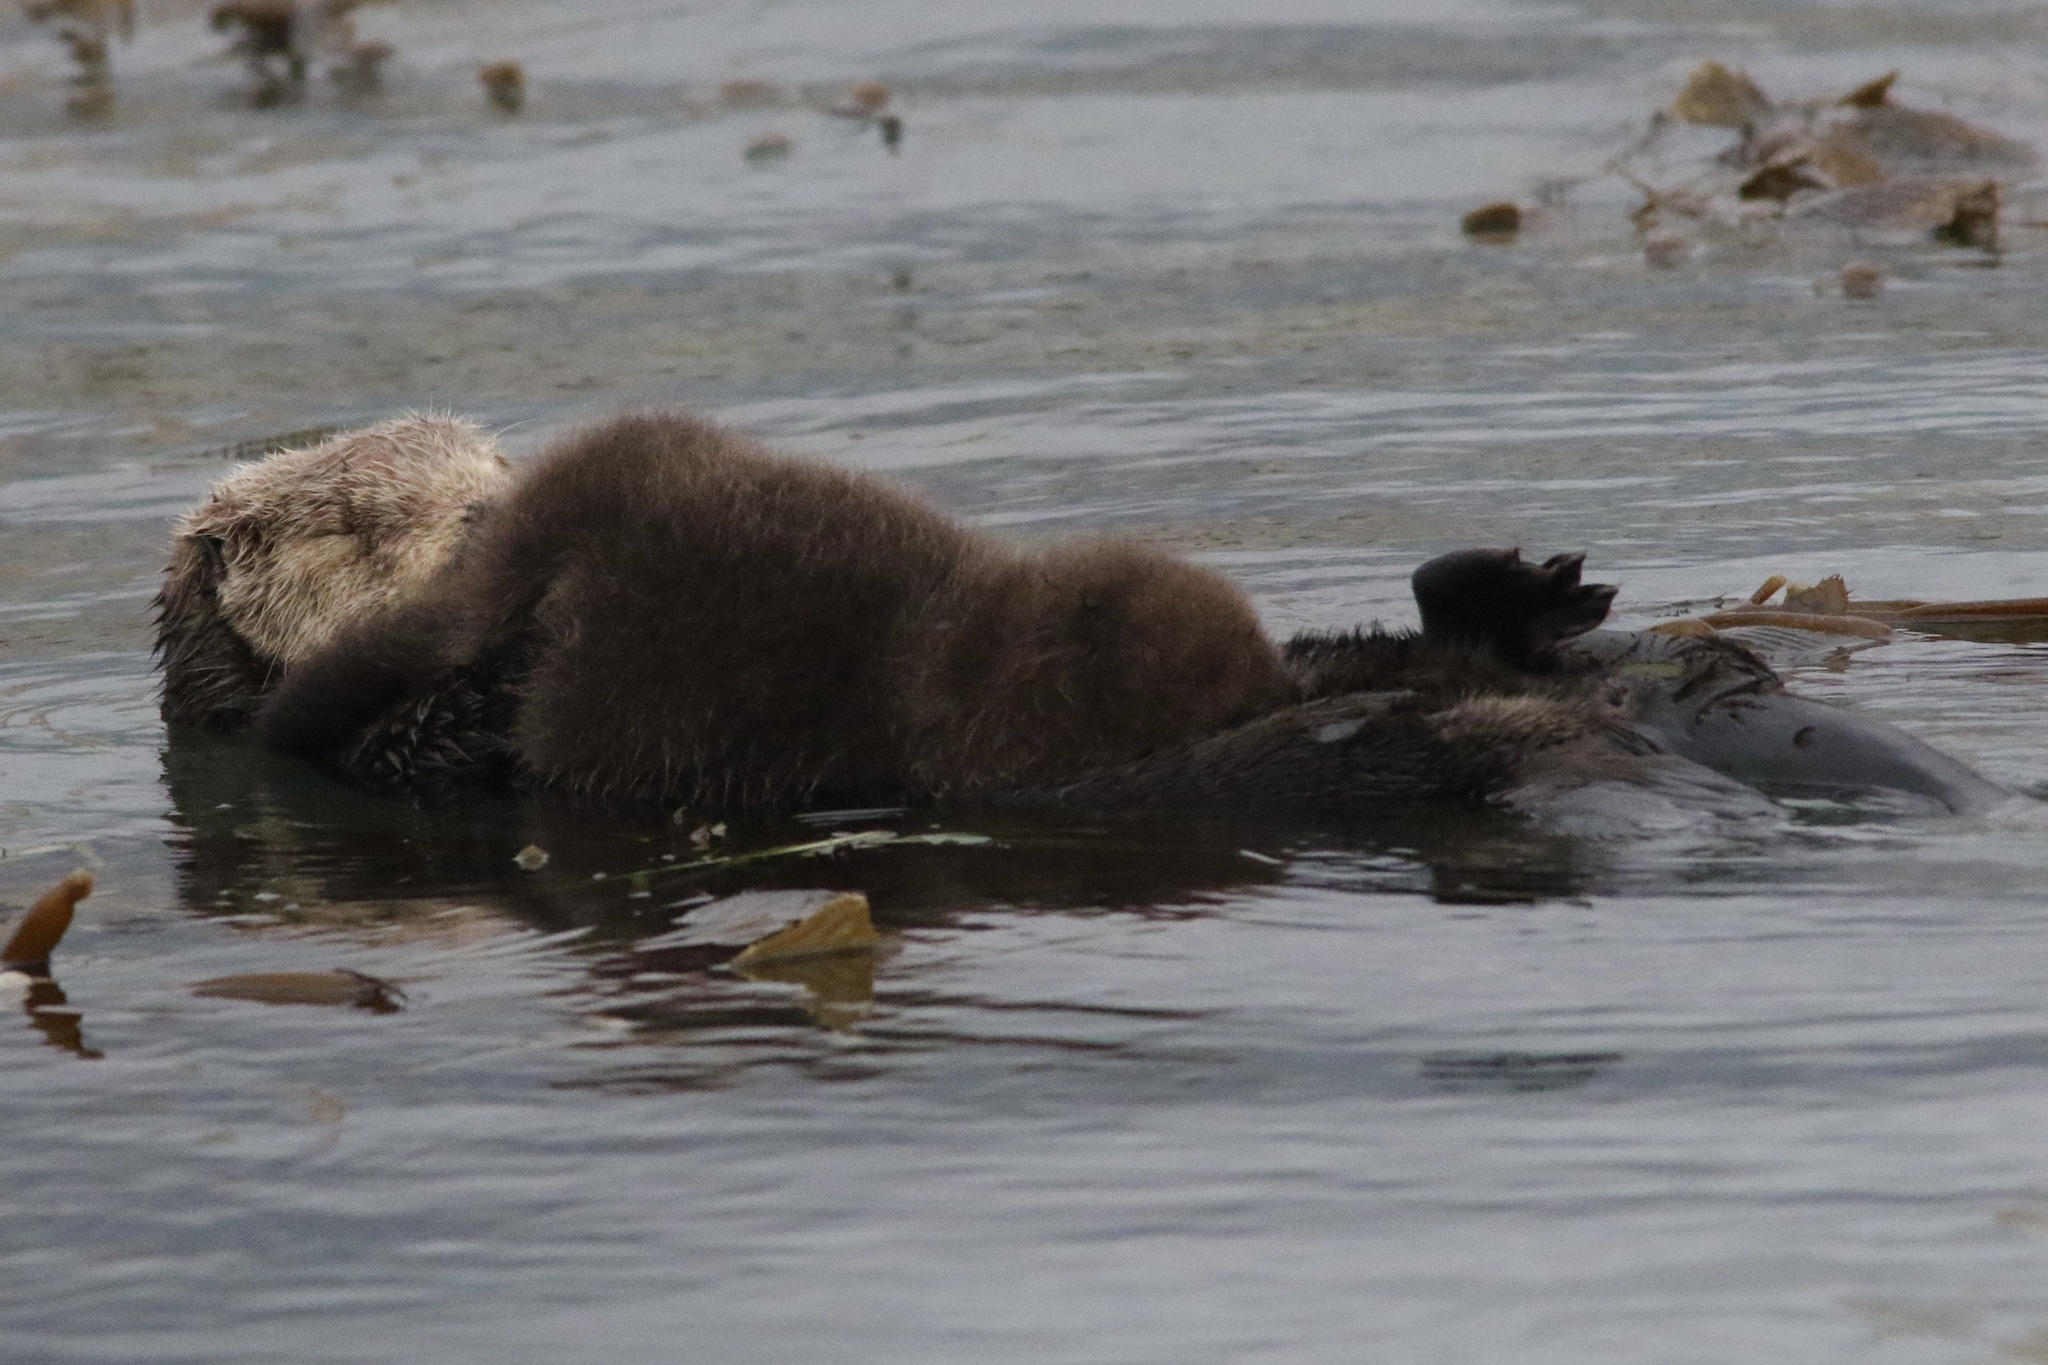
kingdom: Animalia
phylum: Chordata
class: Mammalia
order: Carnivora
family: Mustelidae
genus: Enhydra
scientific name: Enhydra lutris
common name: Sea otter
